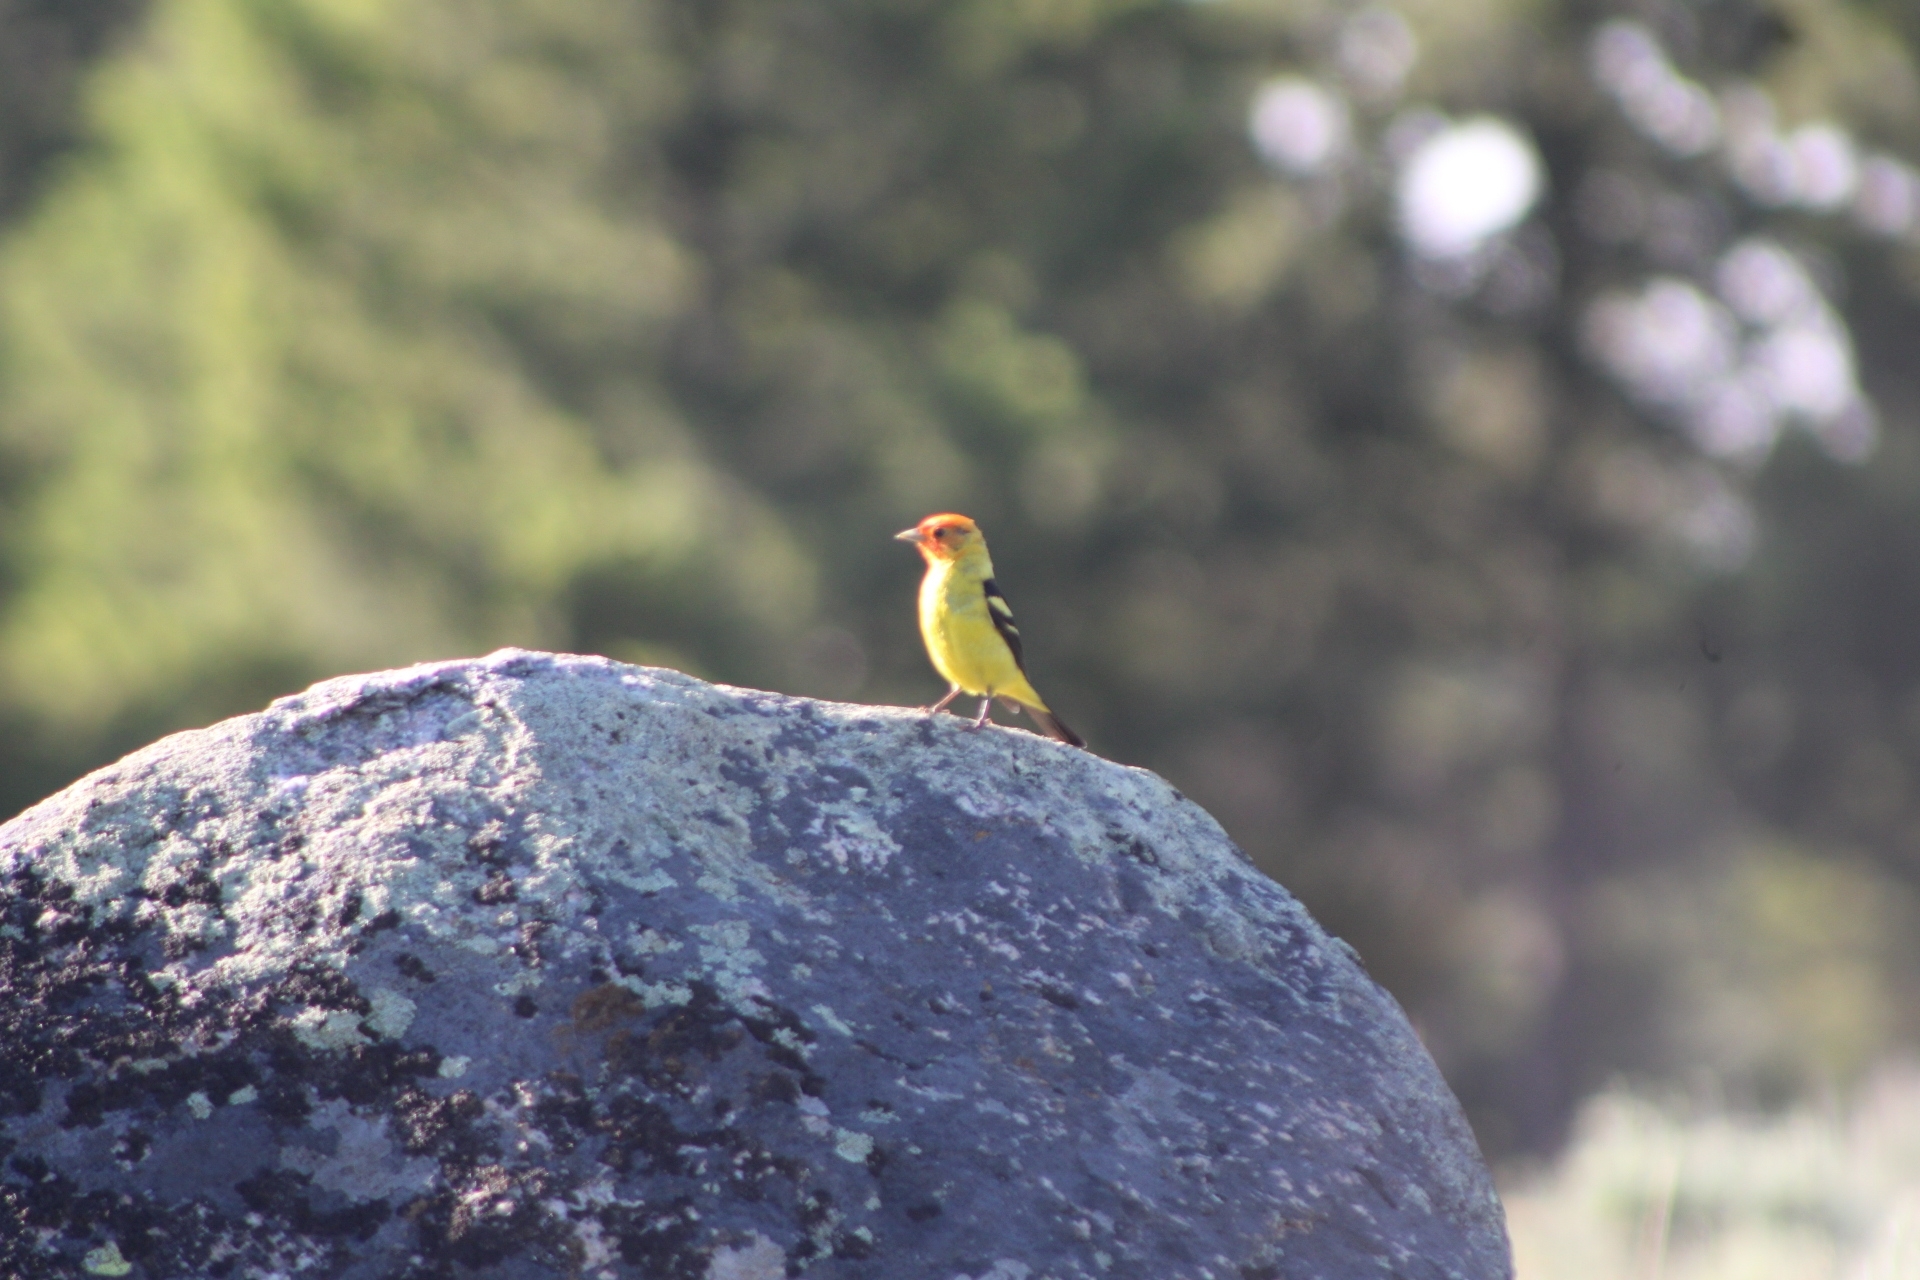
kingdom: Animalia
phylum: Chordata
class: Aves
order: Passeriformes
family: Cardinalidae
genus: Piranga
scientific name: Piranga ludoviciana
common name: Western tanager
